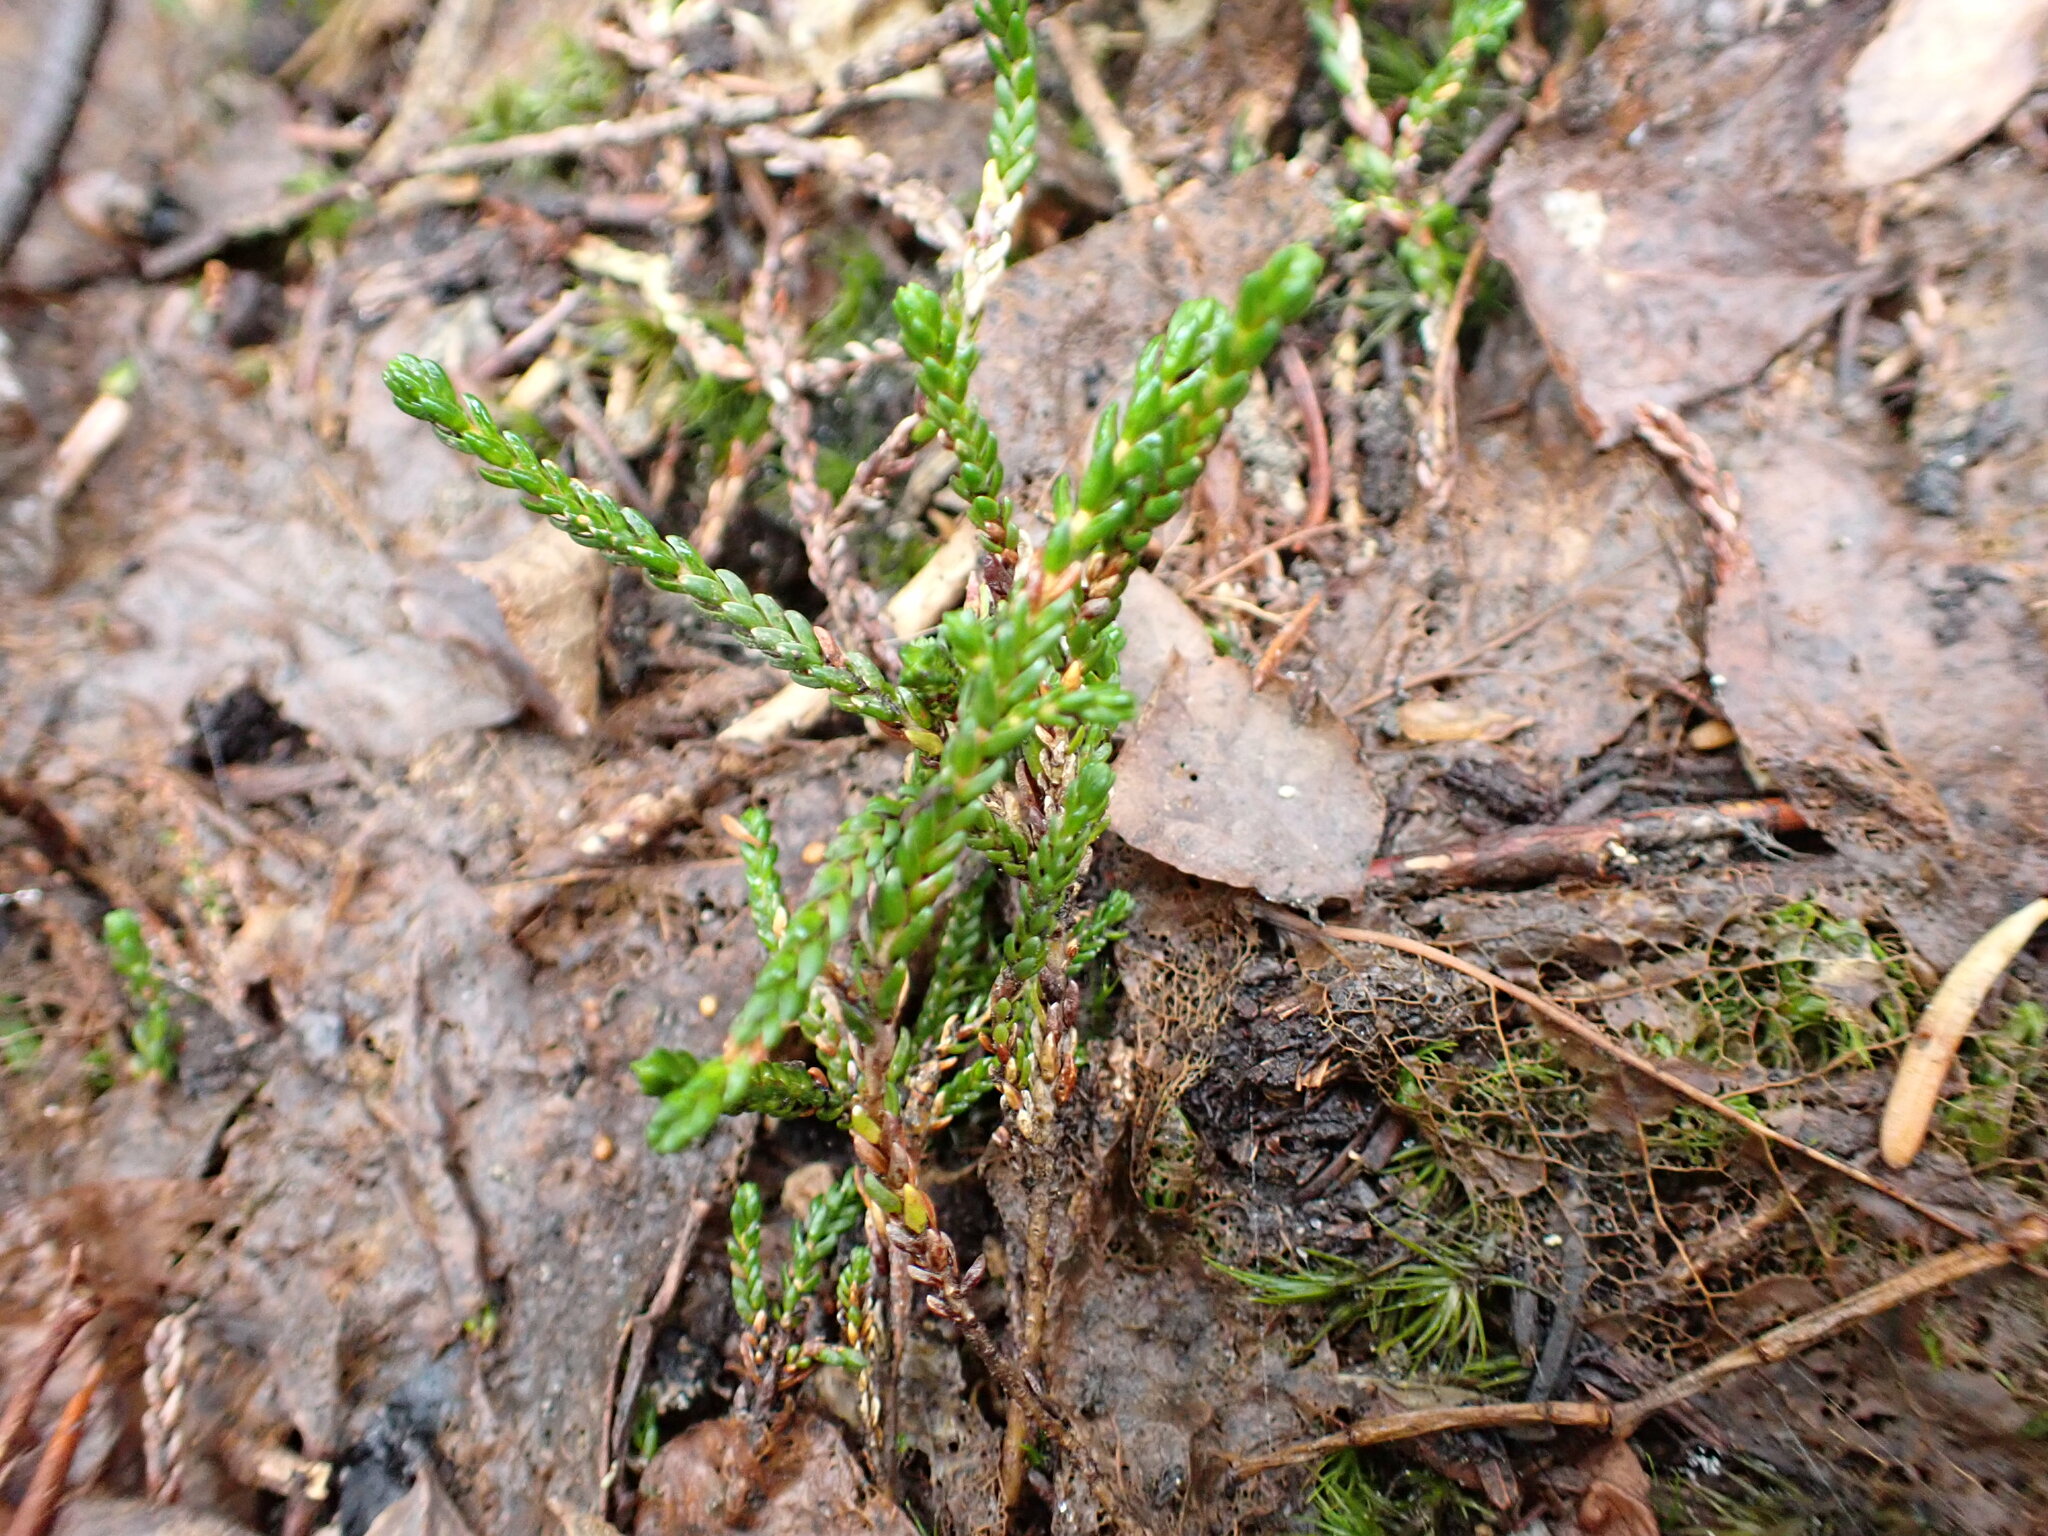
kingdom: Plantae
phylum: Tracheophyta
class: Magnoliopsida
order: Ericales
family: Ericaceae
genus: Cassiope
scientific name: Cassiope mertensiana
